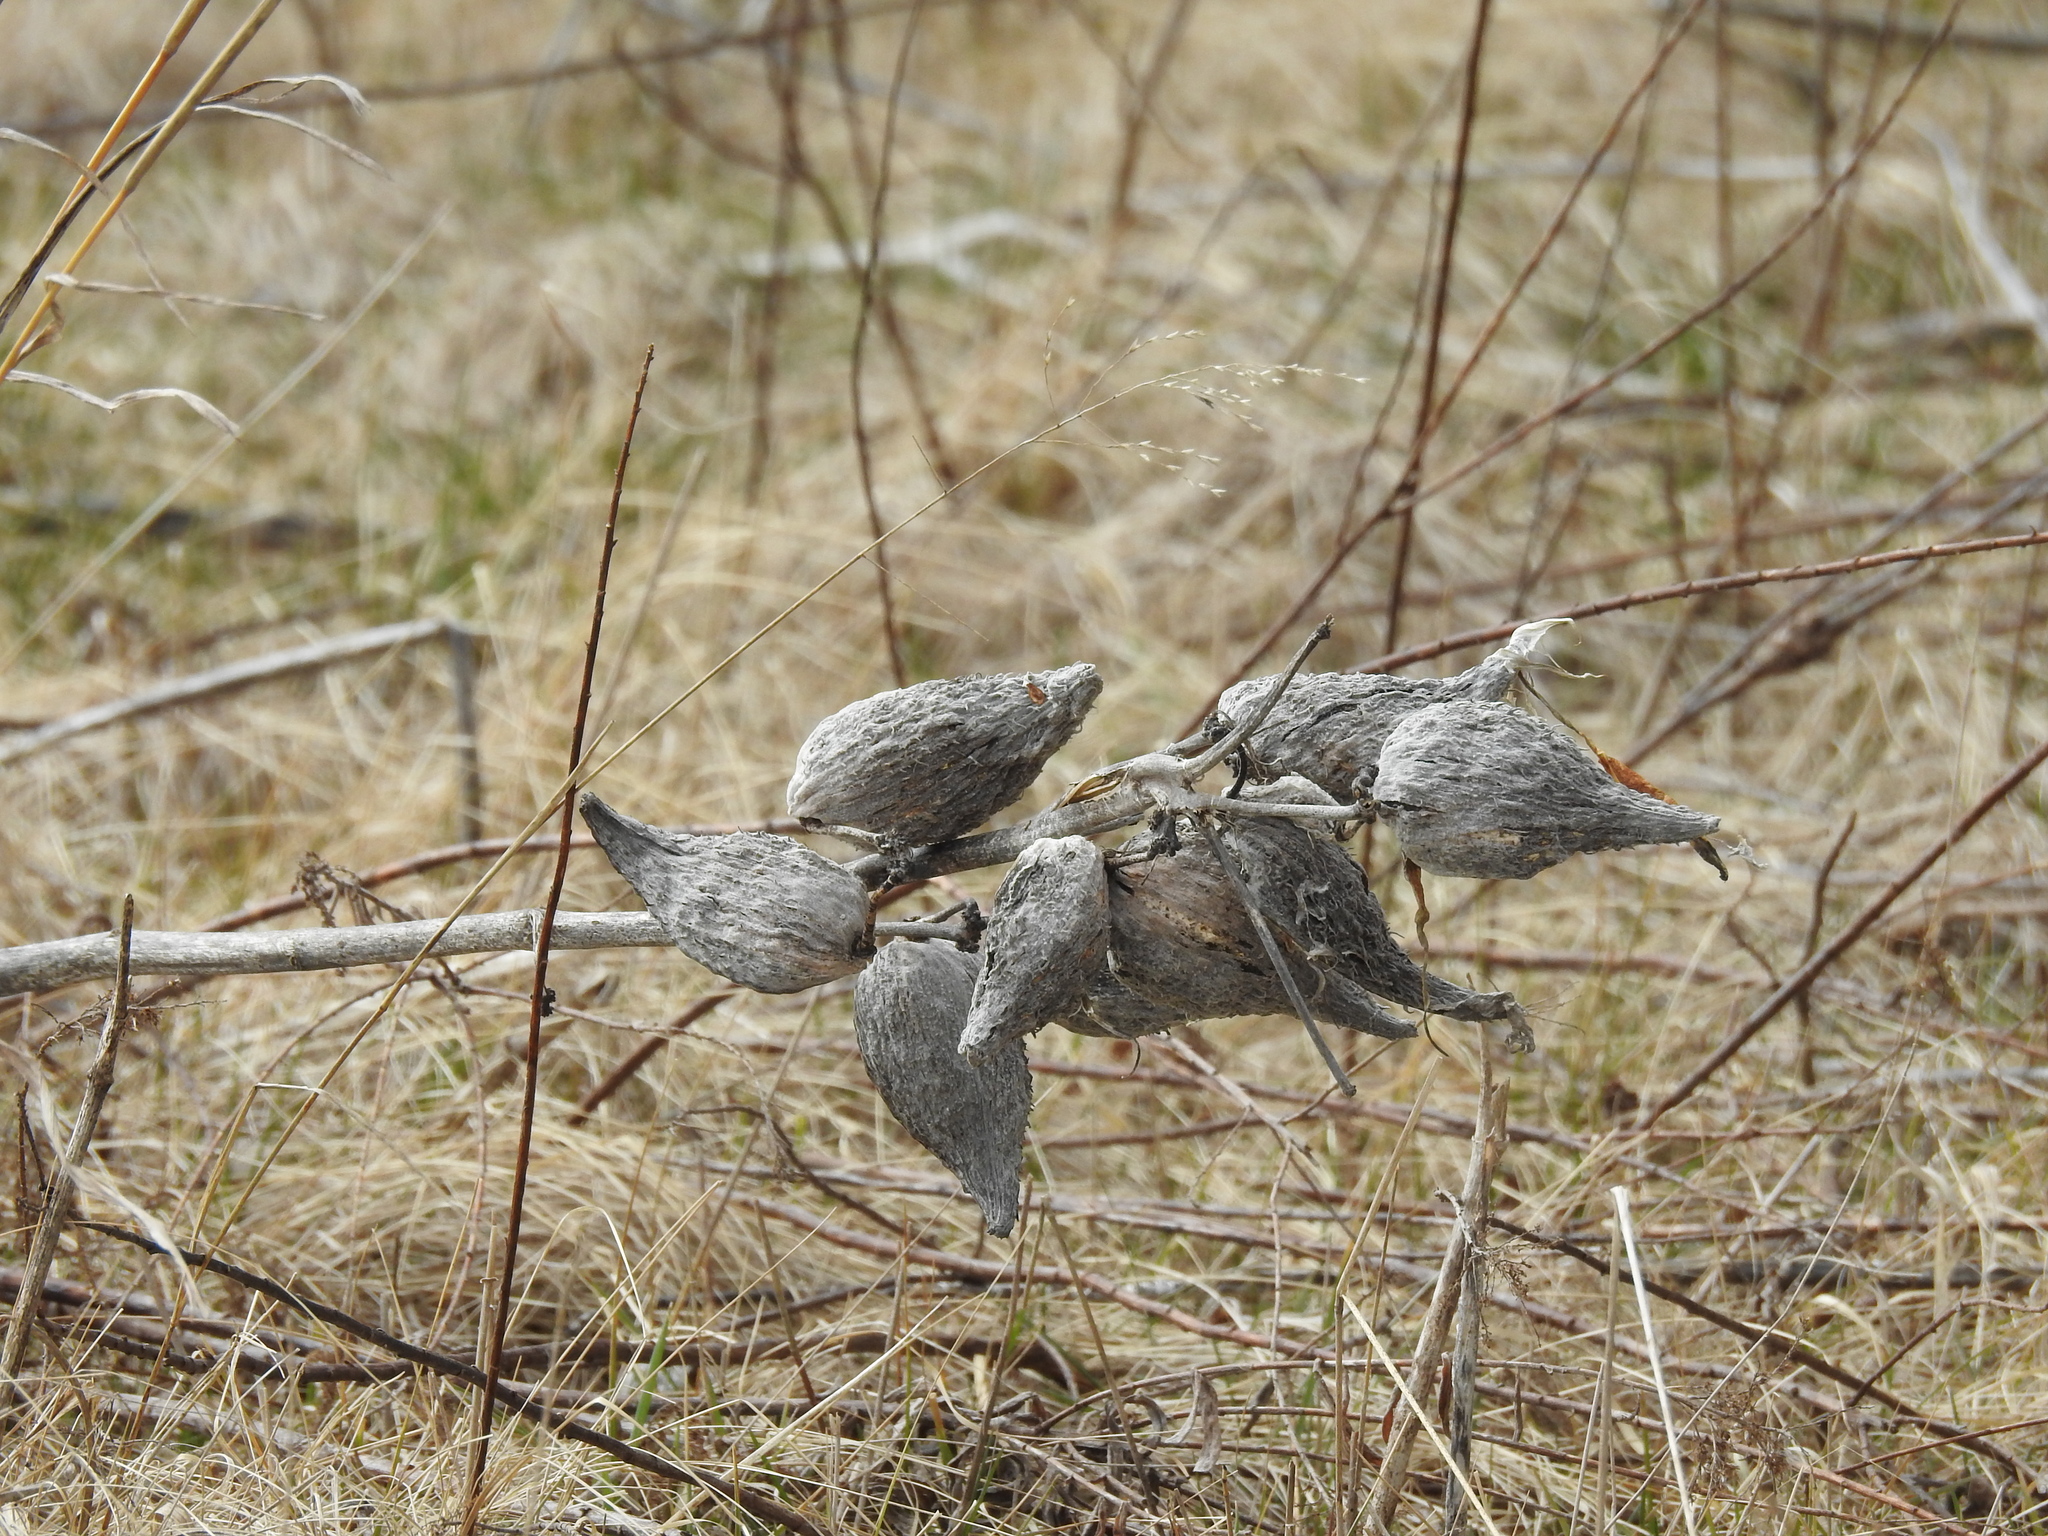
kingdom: Plantae
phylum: Tracheophyta
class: Magnoliopsida
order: Gentianales
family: Apocynaceae
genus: Asclepias
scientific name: Asclepias syriaca
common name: Common milkweed
